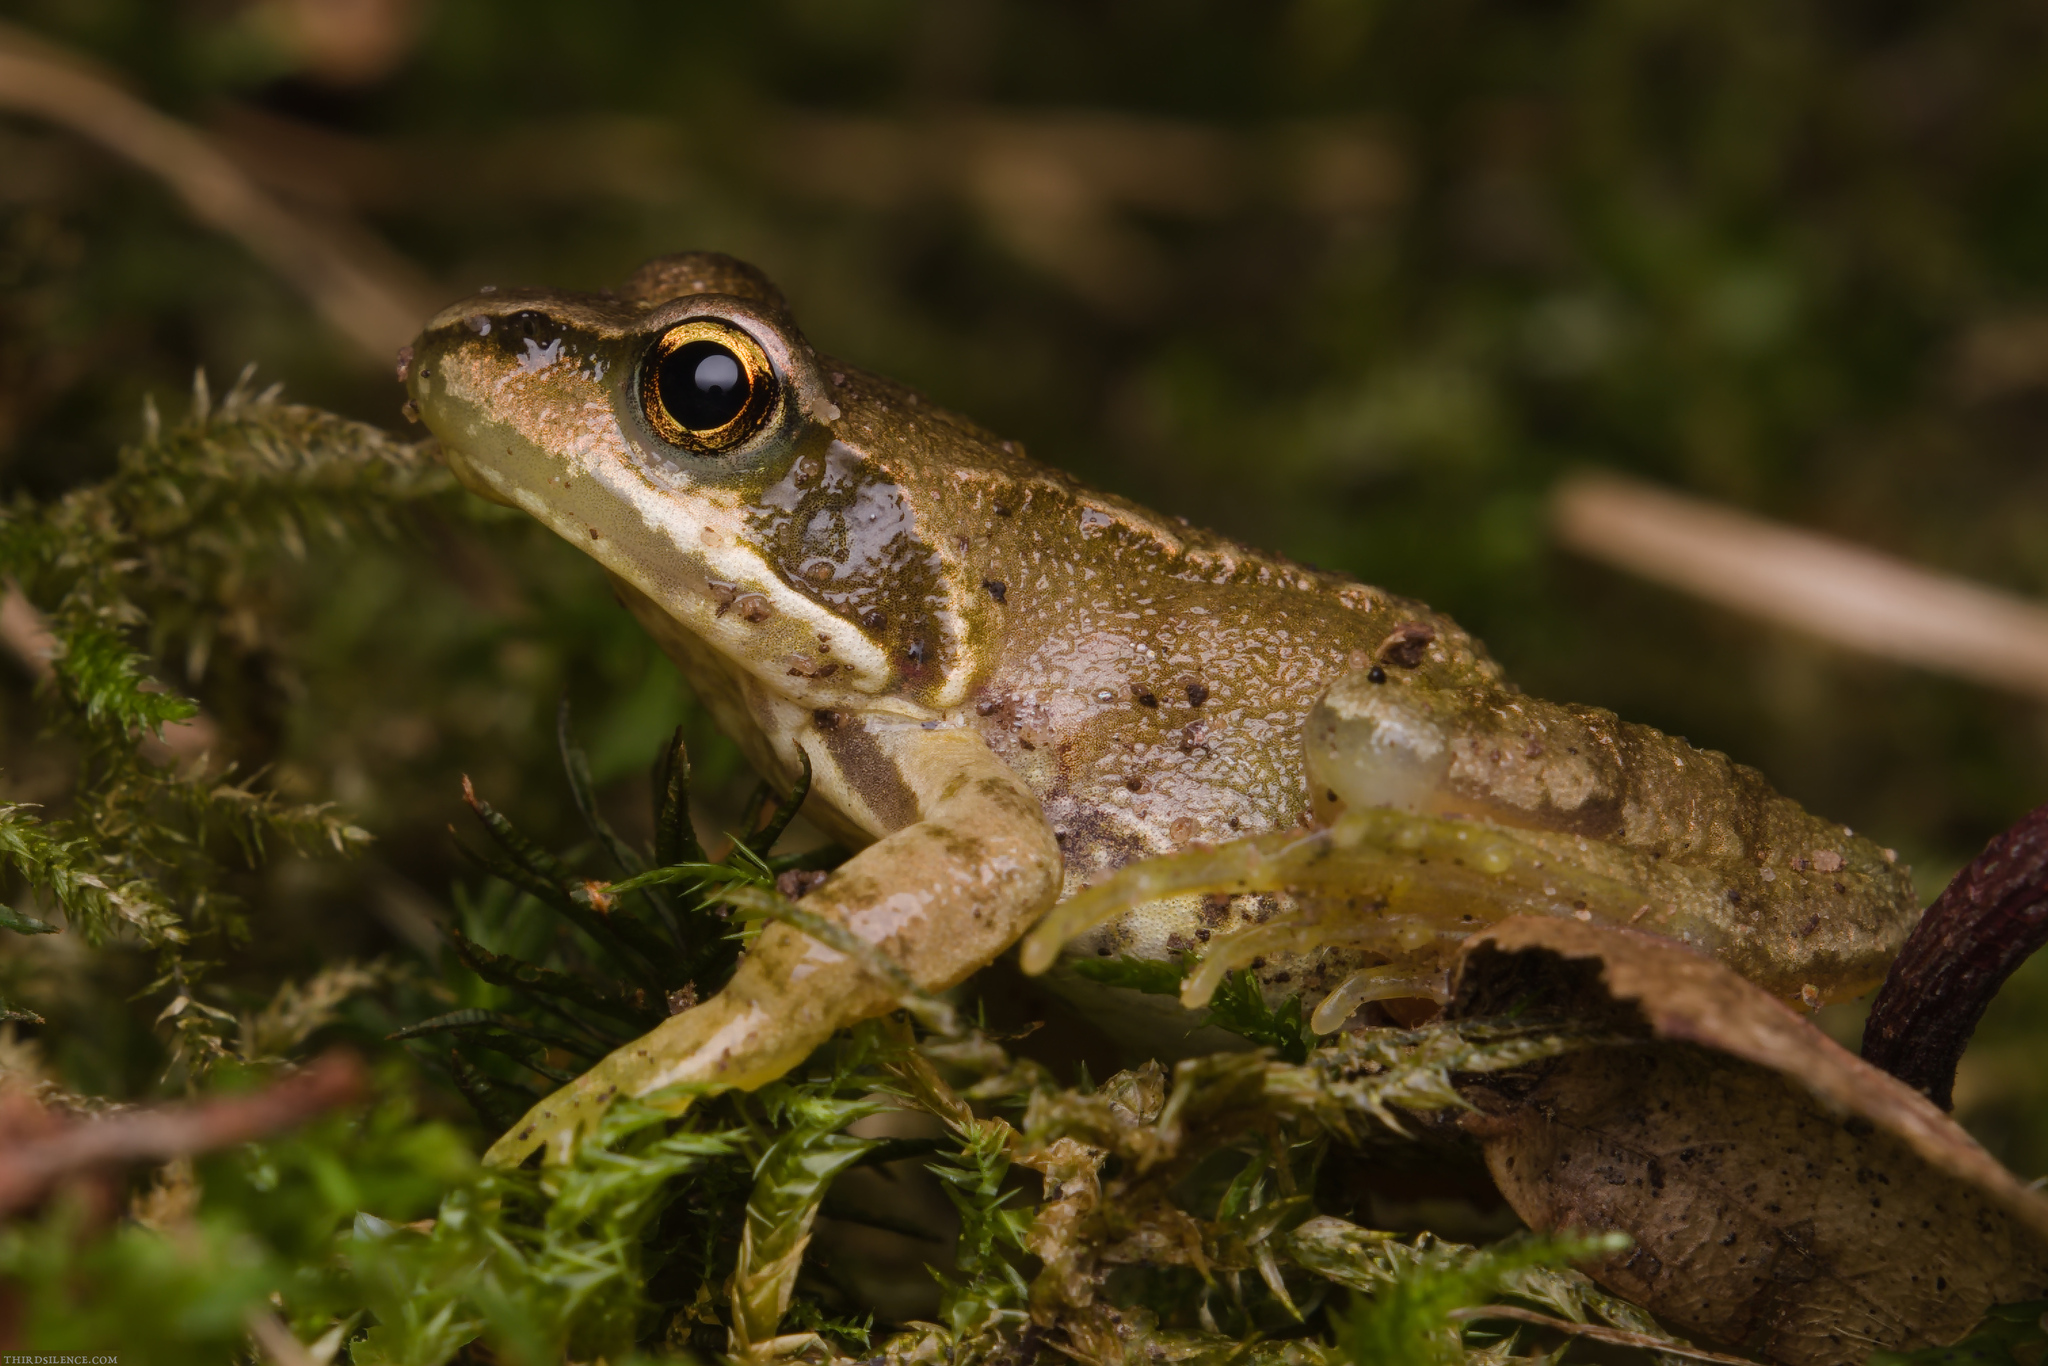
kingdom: Animalia
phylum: Chordata
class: Amphibia
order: Anura
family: Ranidae
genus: Rana
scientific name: Rana temporaria
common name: Common frog
